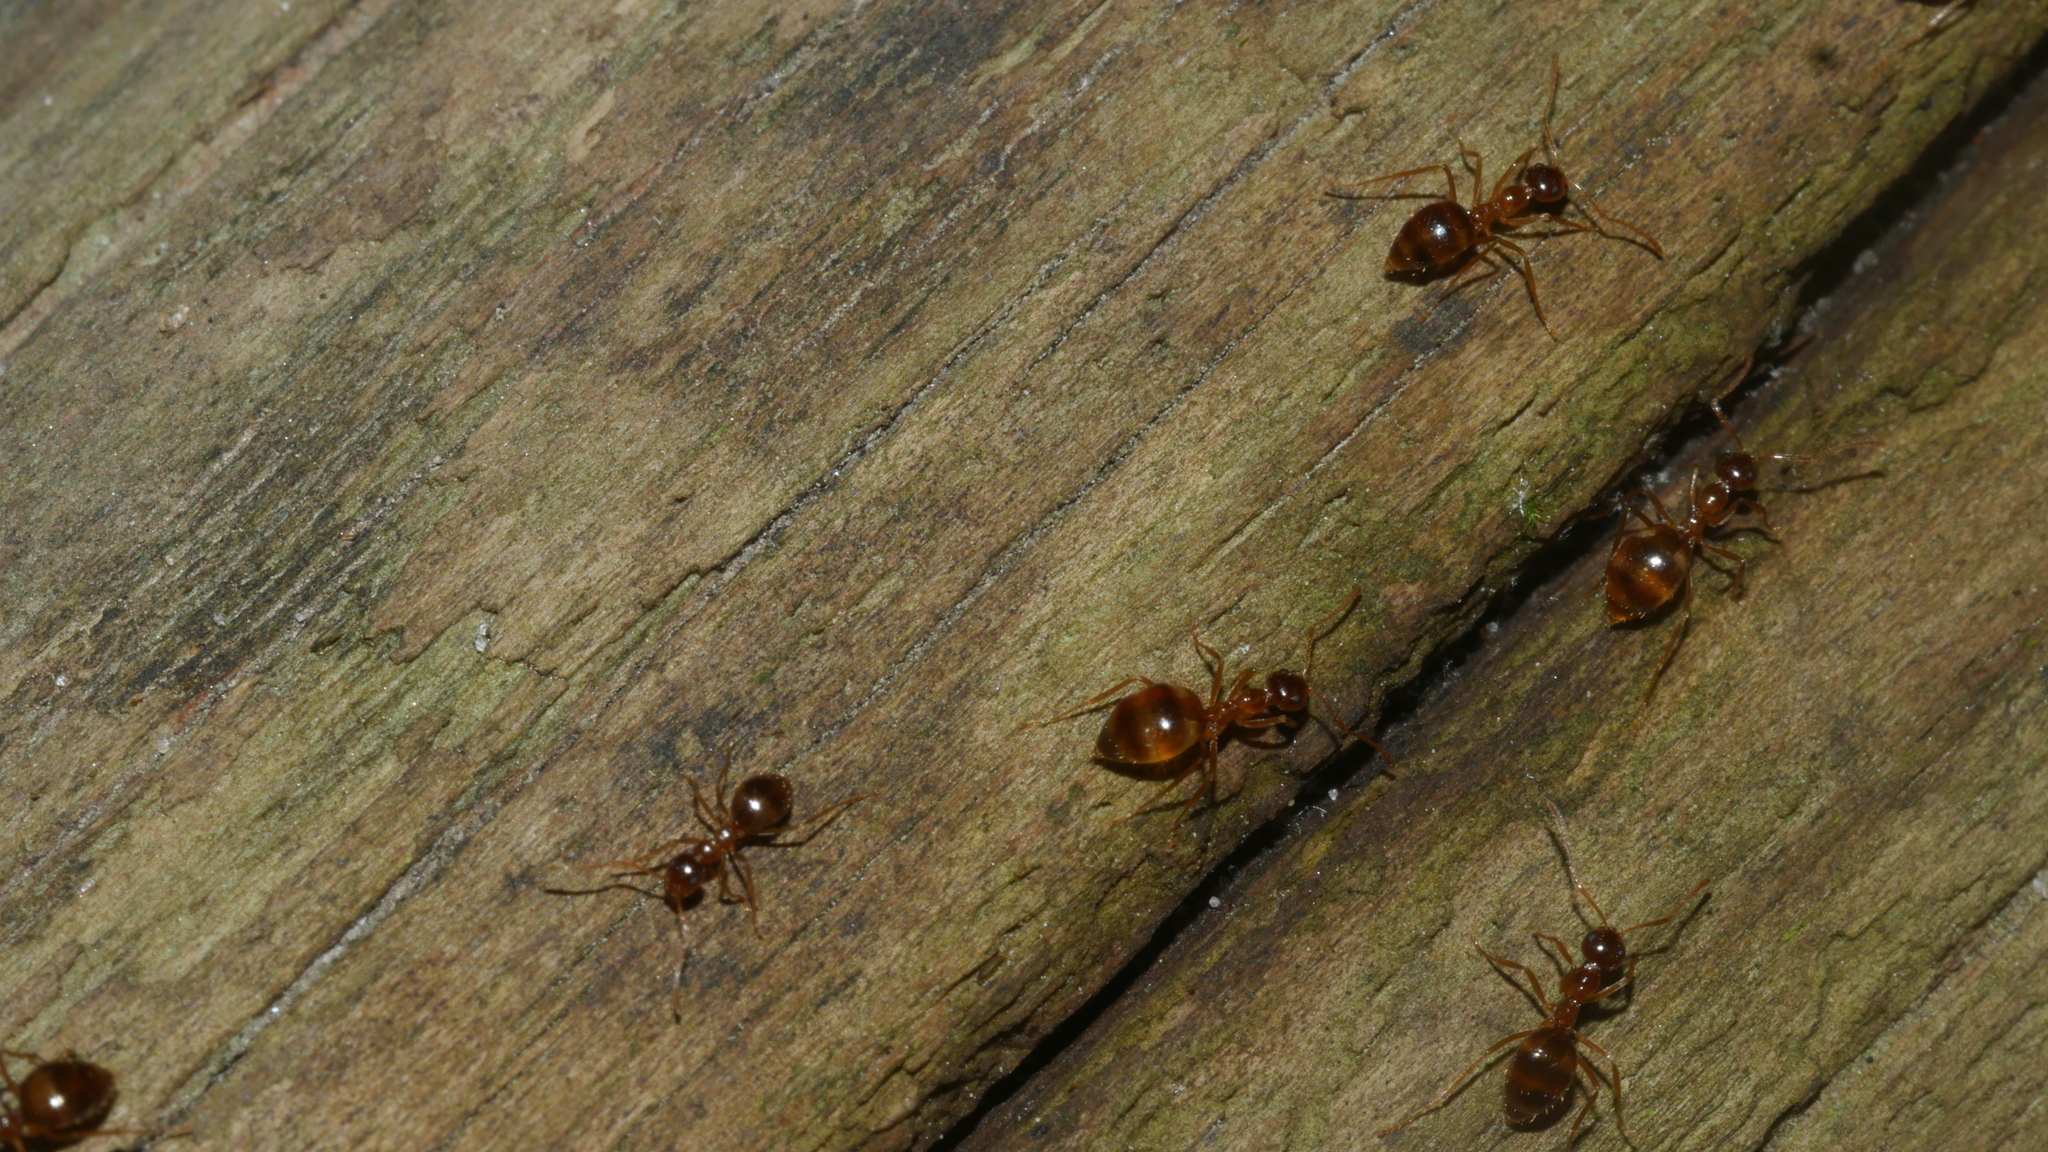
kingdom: Animalia
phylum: Arthropoda
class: Insecta
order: Hymenoptera
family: Formicidae
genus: Prenolepis
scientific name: Prenolepis imparis
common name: Small honey ant
